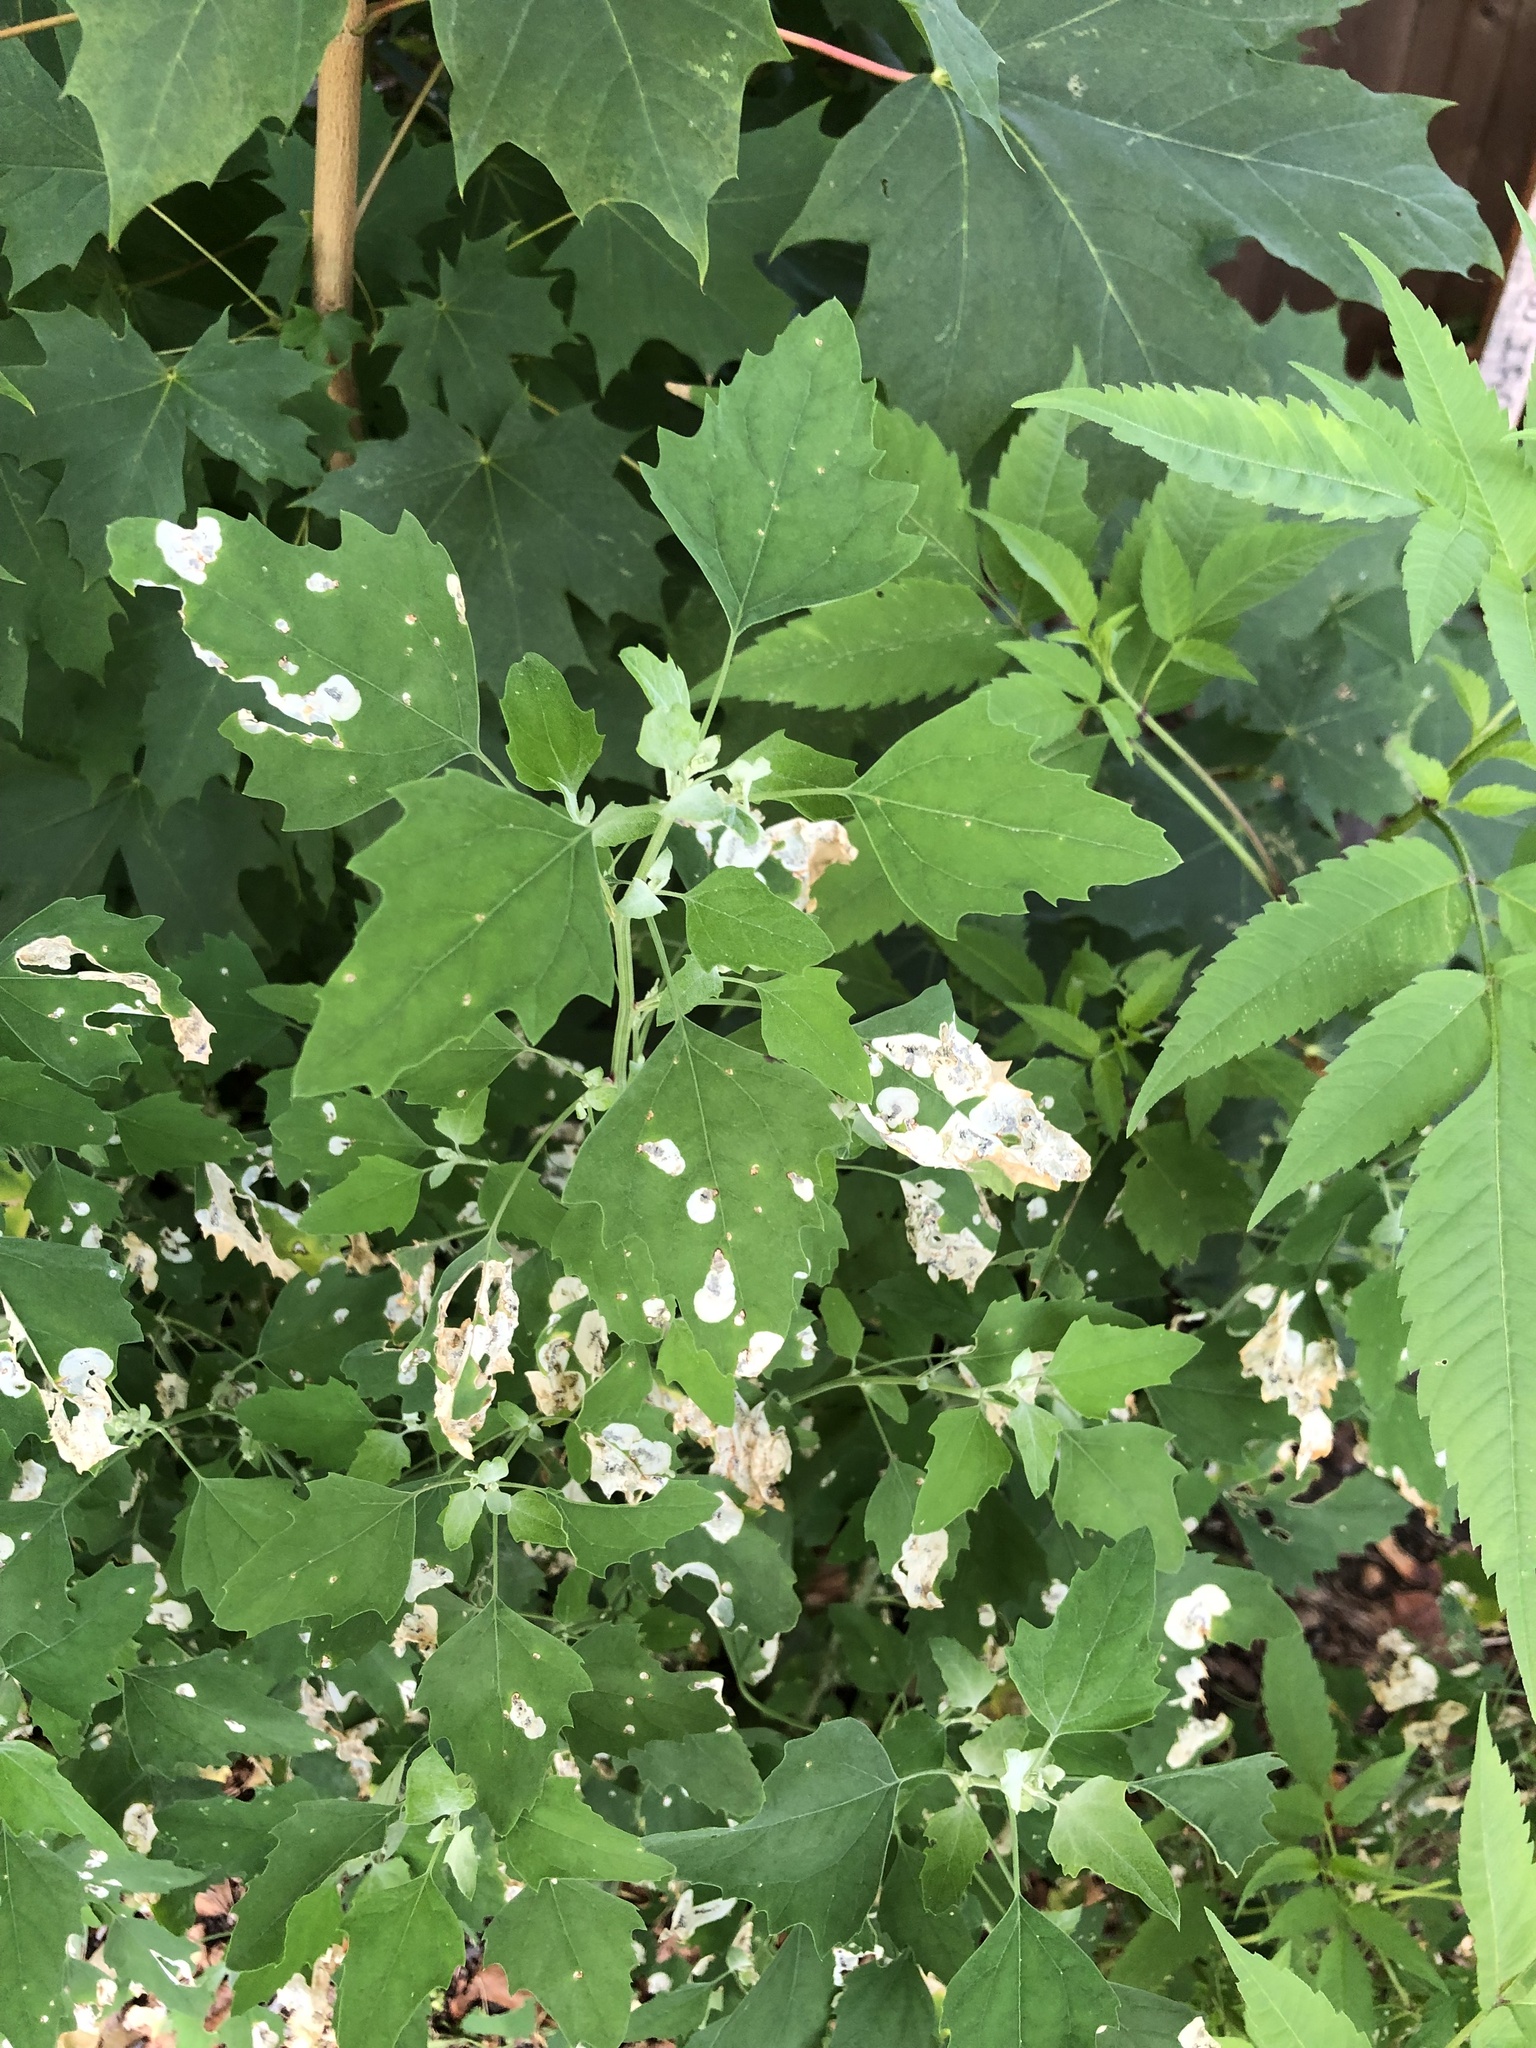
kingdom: Animalia
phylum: Arthropoda
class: Insecta
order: Lepidoptera
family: Gelechiidae
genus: Chrysoesthia
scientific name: Chrysoesthia sexguttella
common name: Moth
